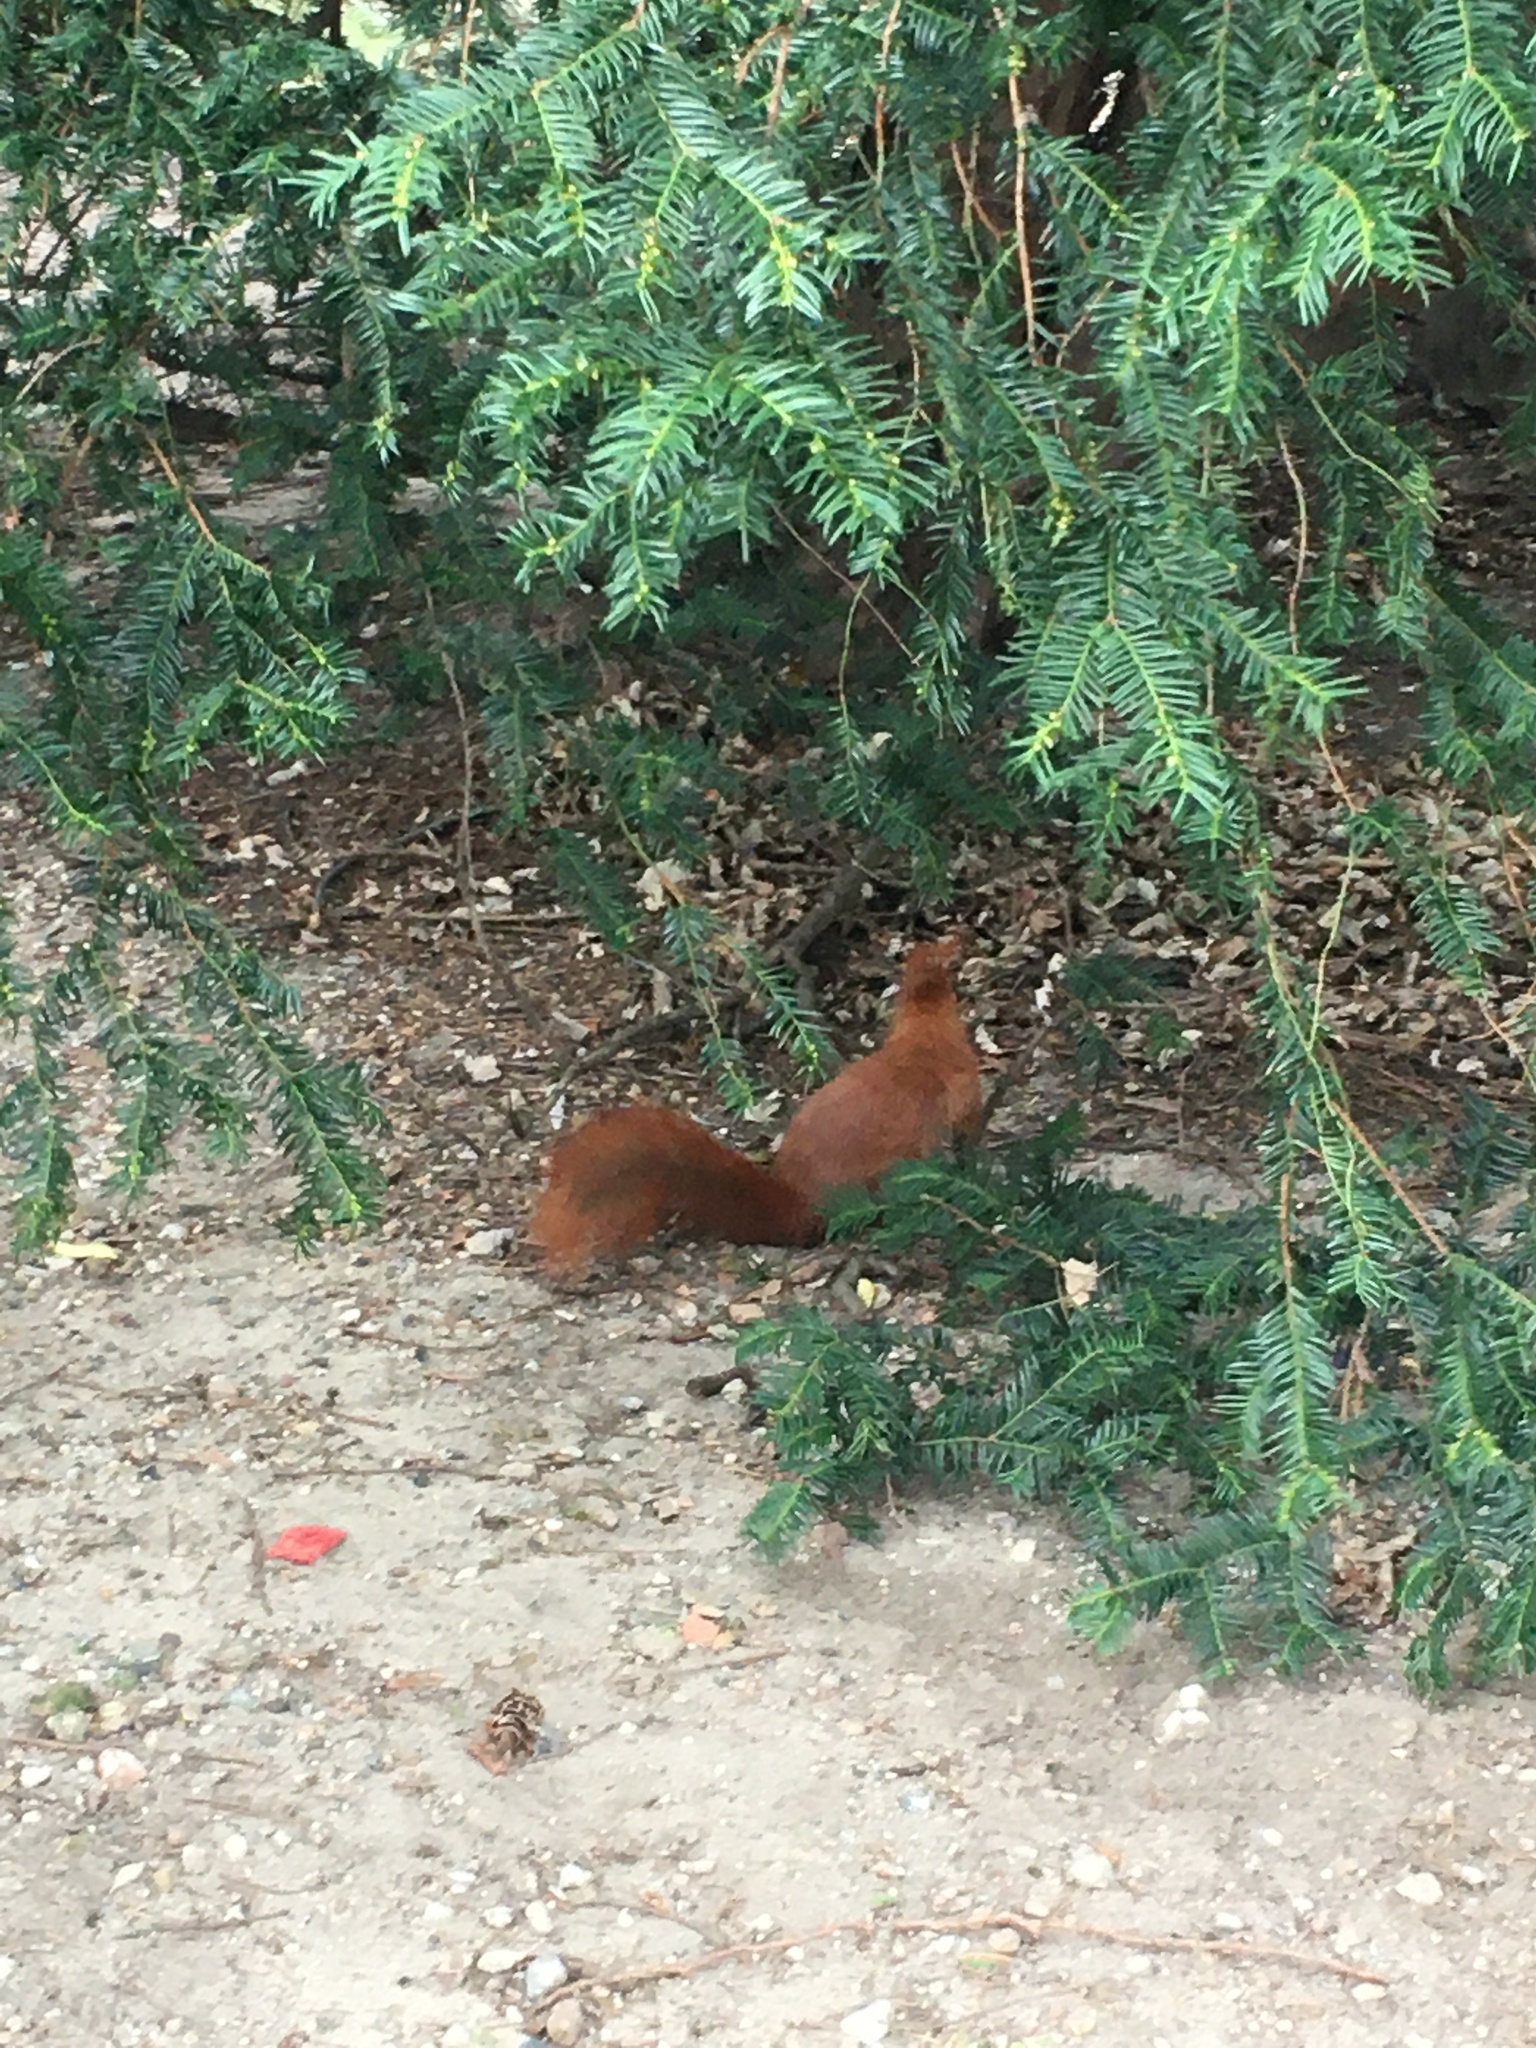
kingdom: Animalia
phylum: Chordata
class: Mammalia
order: Rodentia
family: Sciuridae
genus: Sciurus
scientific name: Sciurus vulgaris
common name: Eurasian red squirrel
